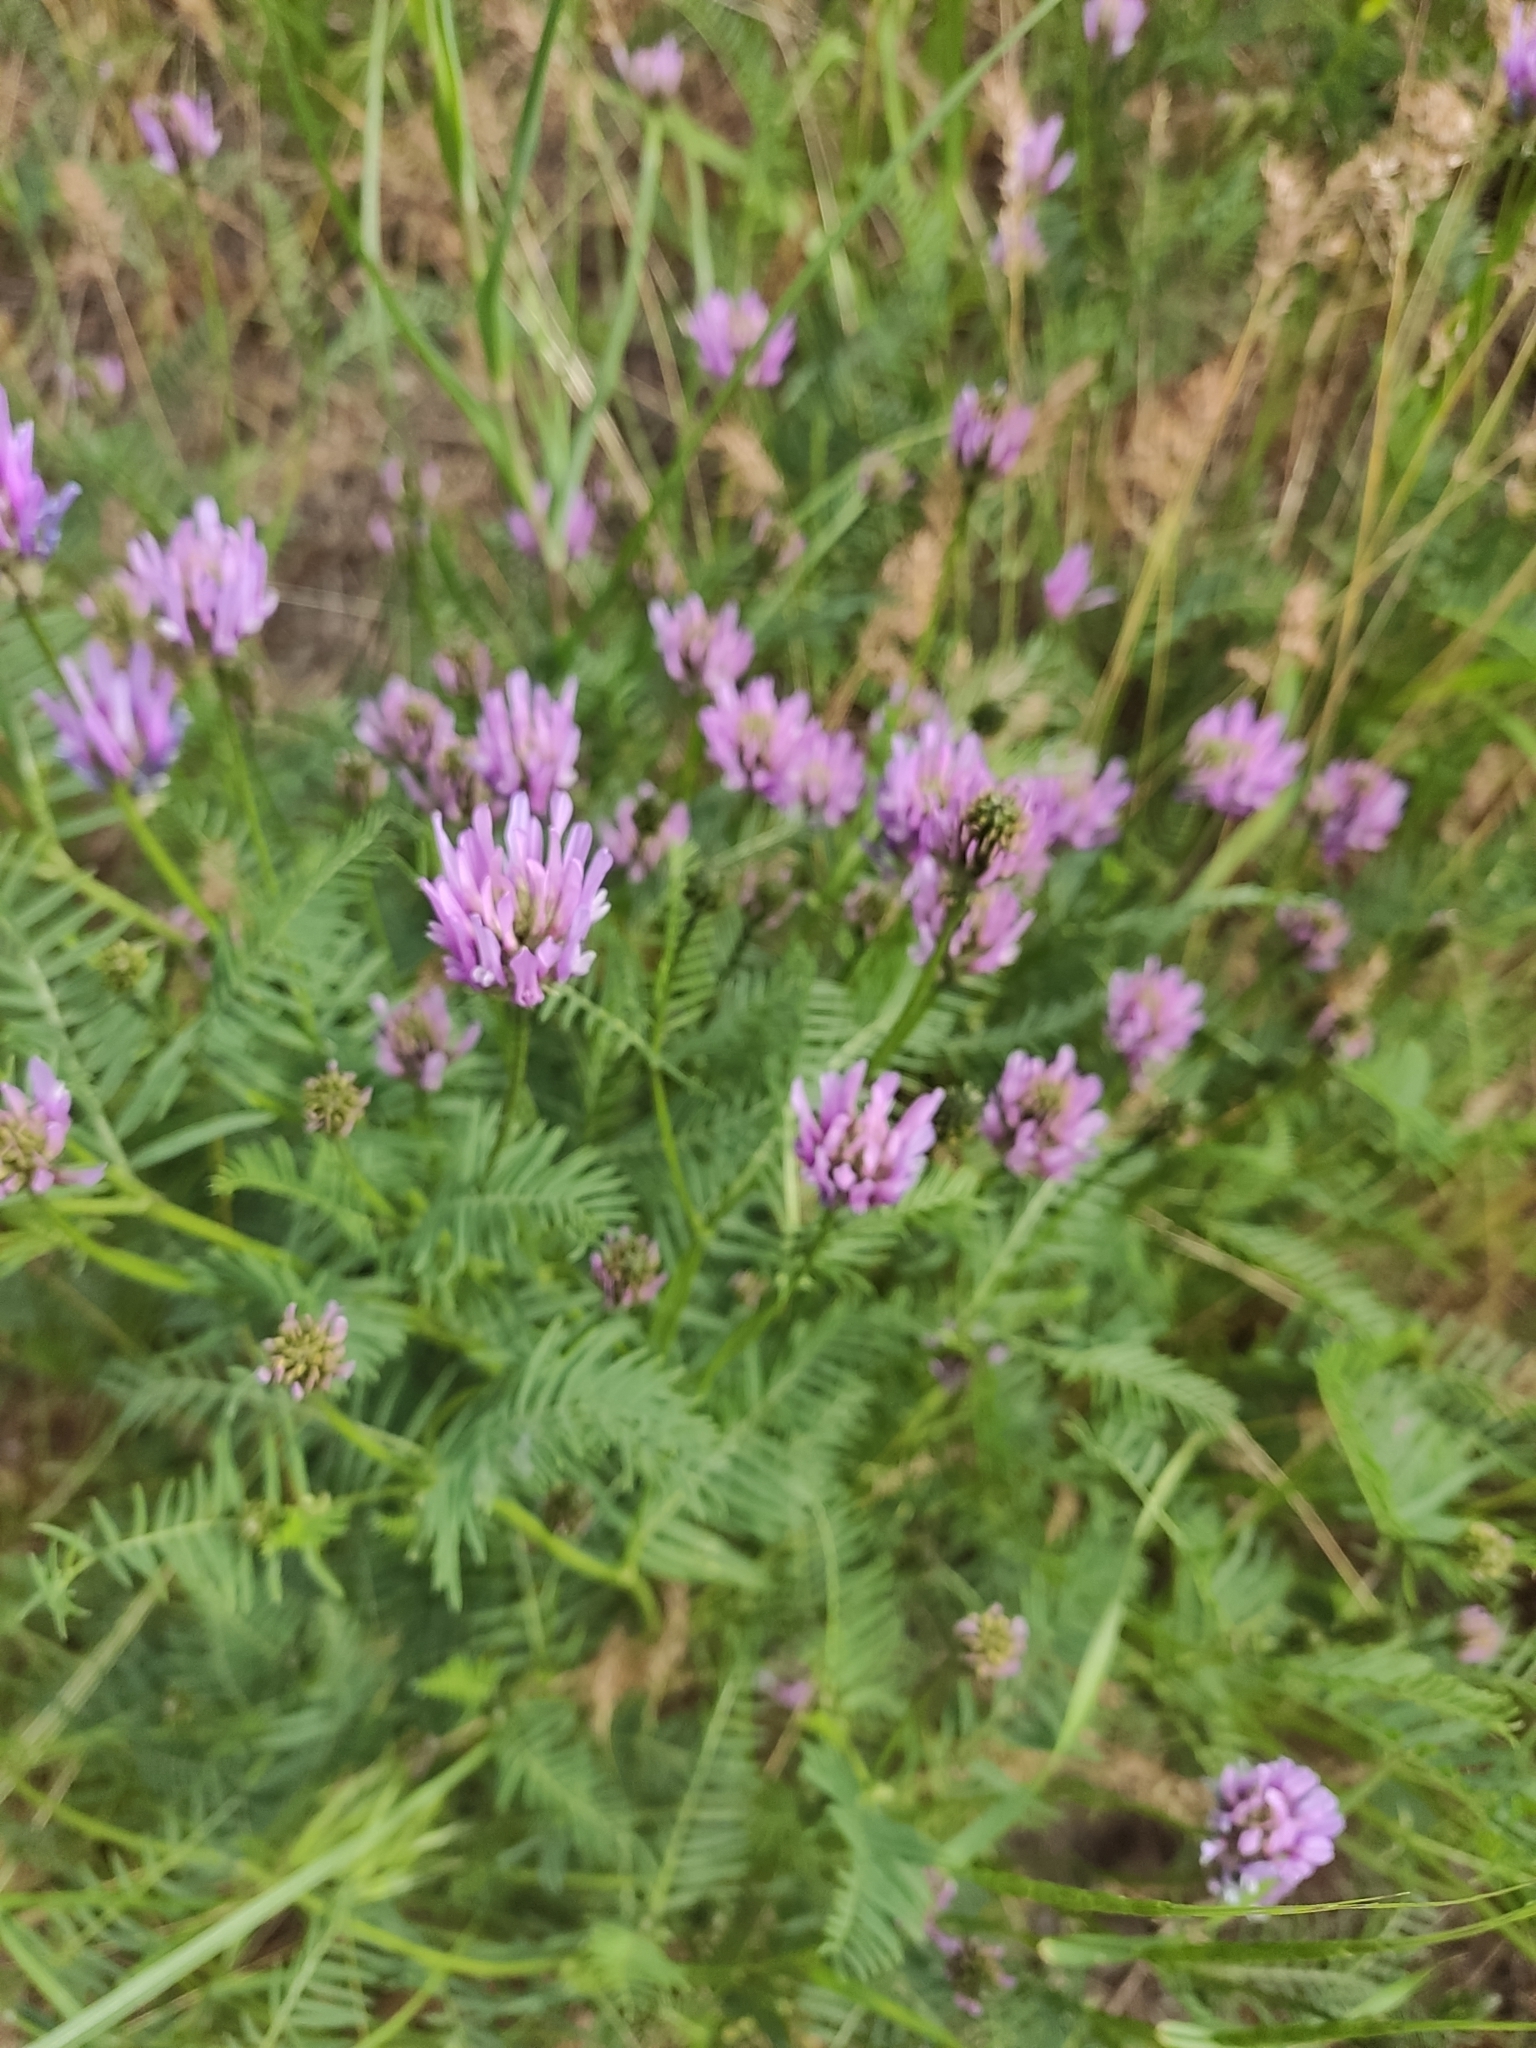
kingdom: Plantae
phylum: Tracheophyta
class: Magnoliopsida
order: Fabales
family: Fabaceae
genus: Astragalus
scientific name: Astragalus onobrychis
